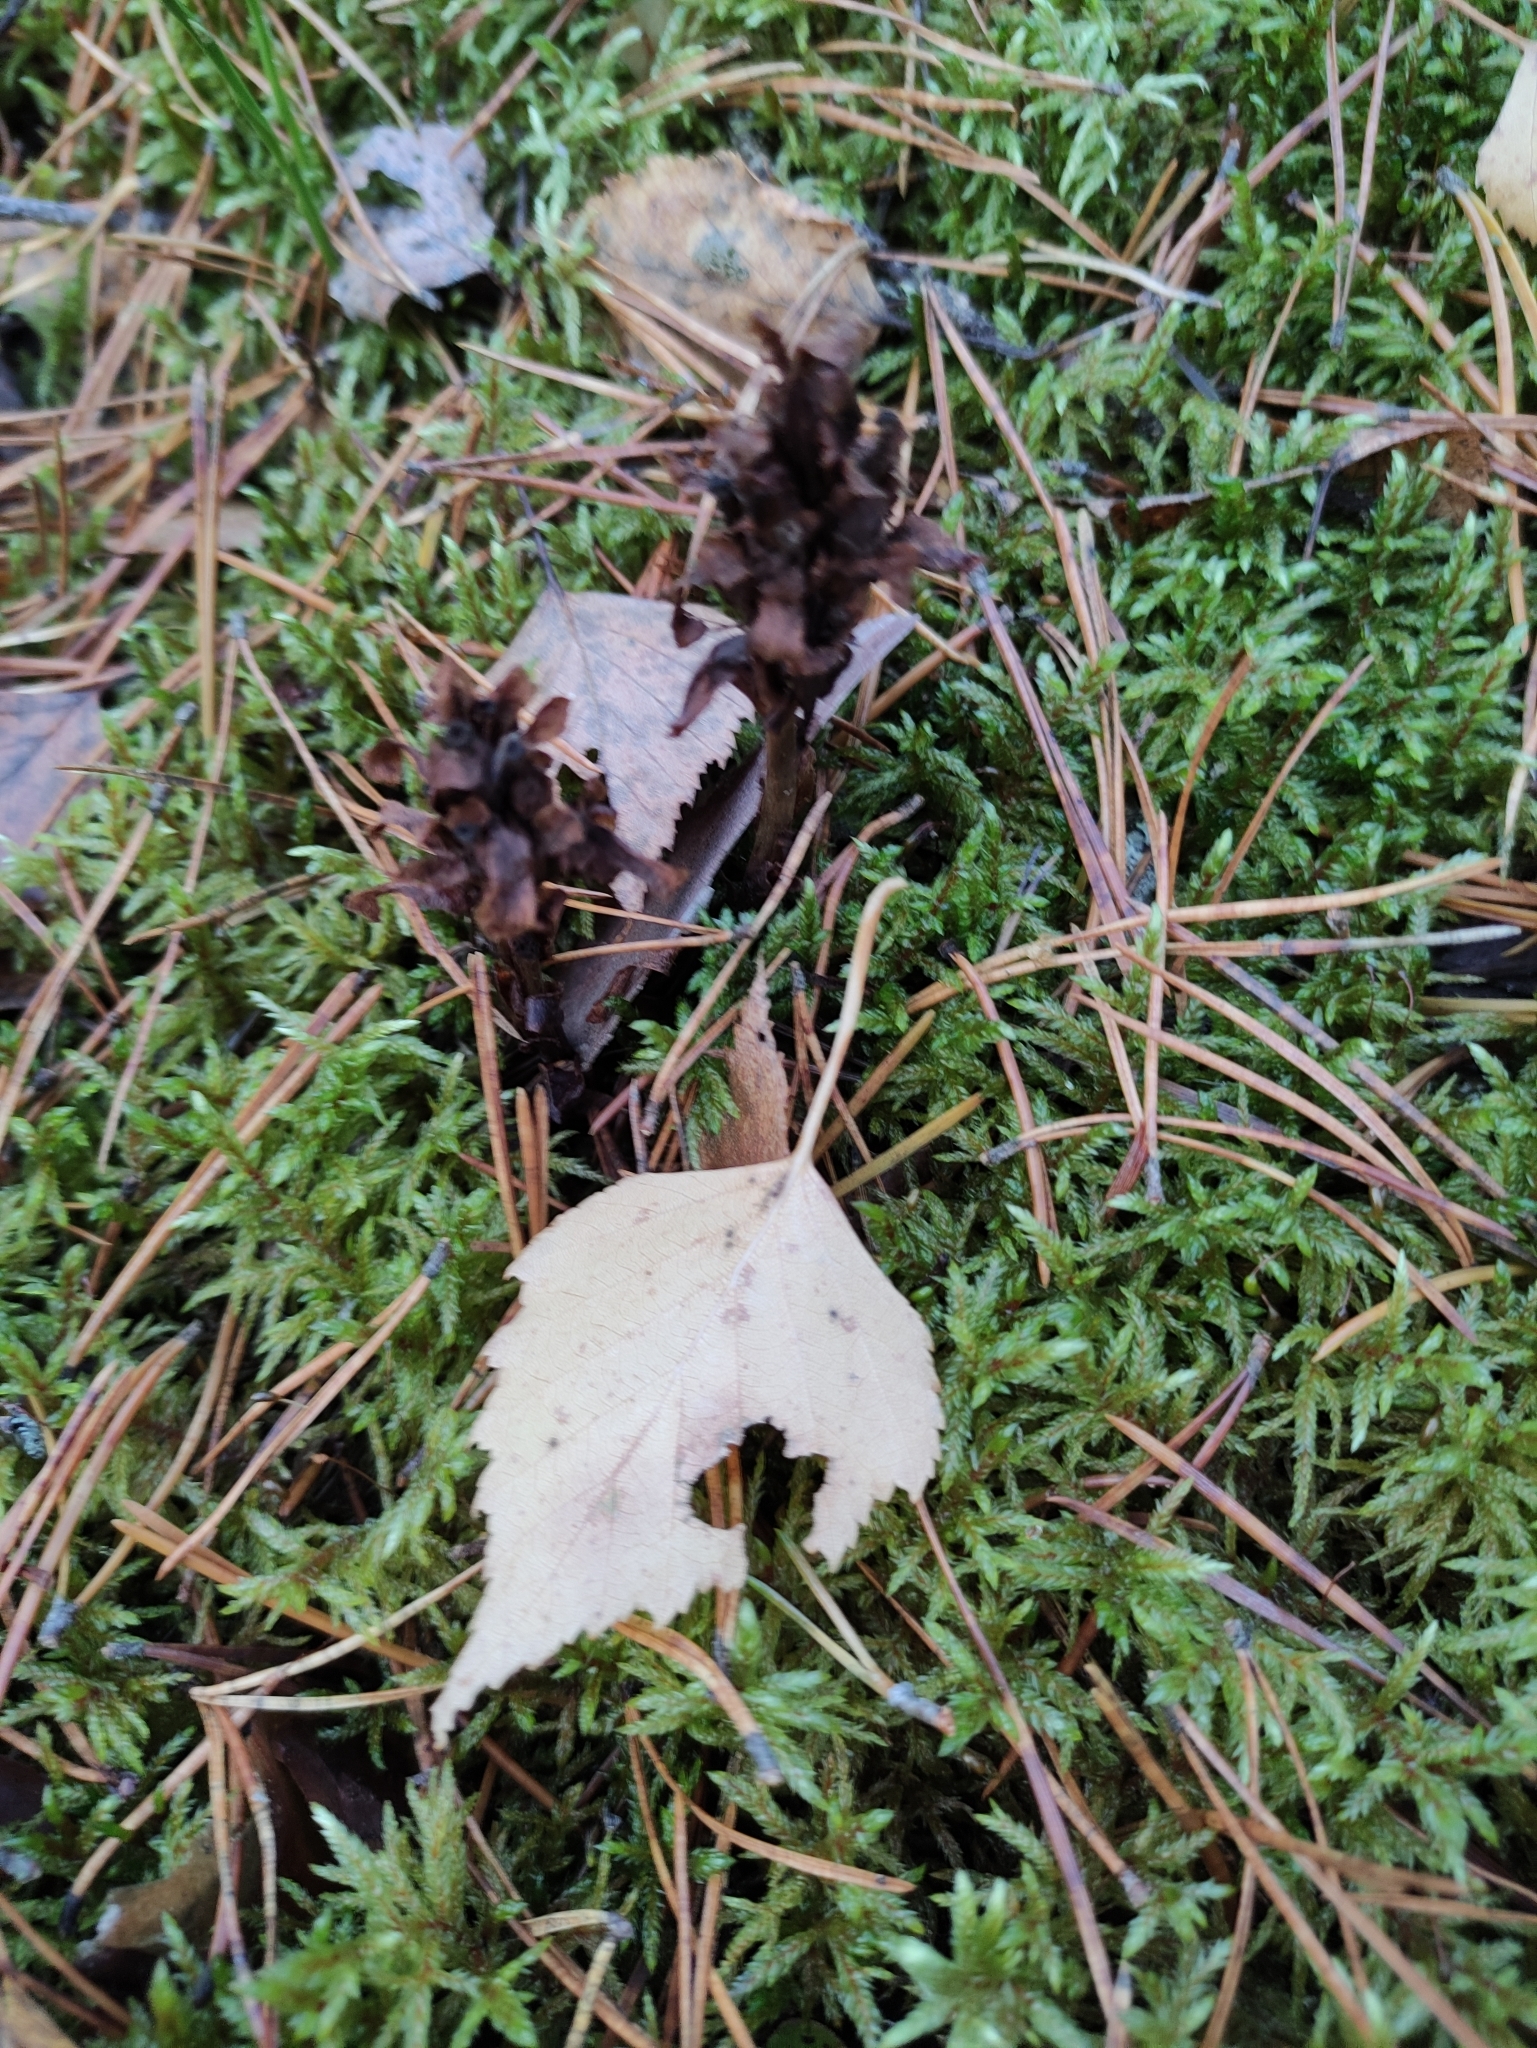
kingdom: Plantae
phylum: Tracheophyta
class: Magnoliopsida
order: Ericales
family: Ericaceae
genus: Hypopitys
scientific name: Hypopitys monotropa
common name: Yellow bird's-nest
